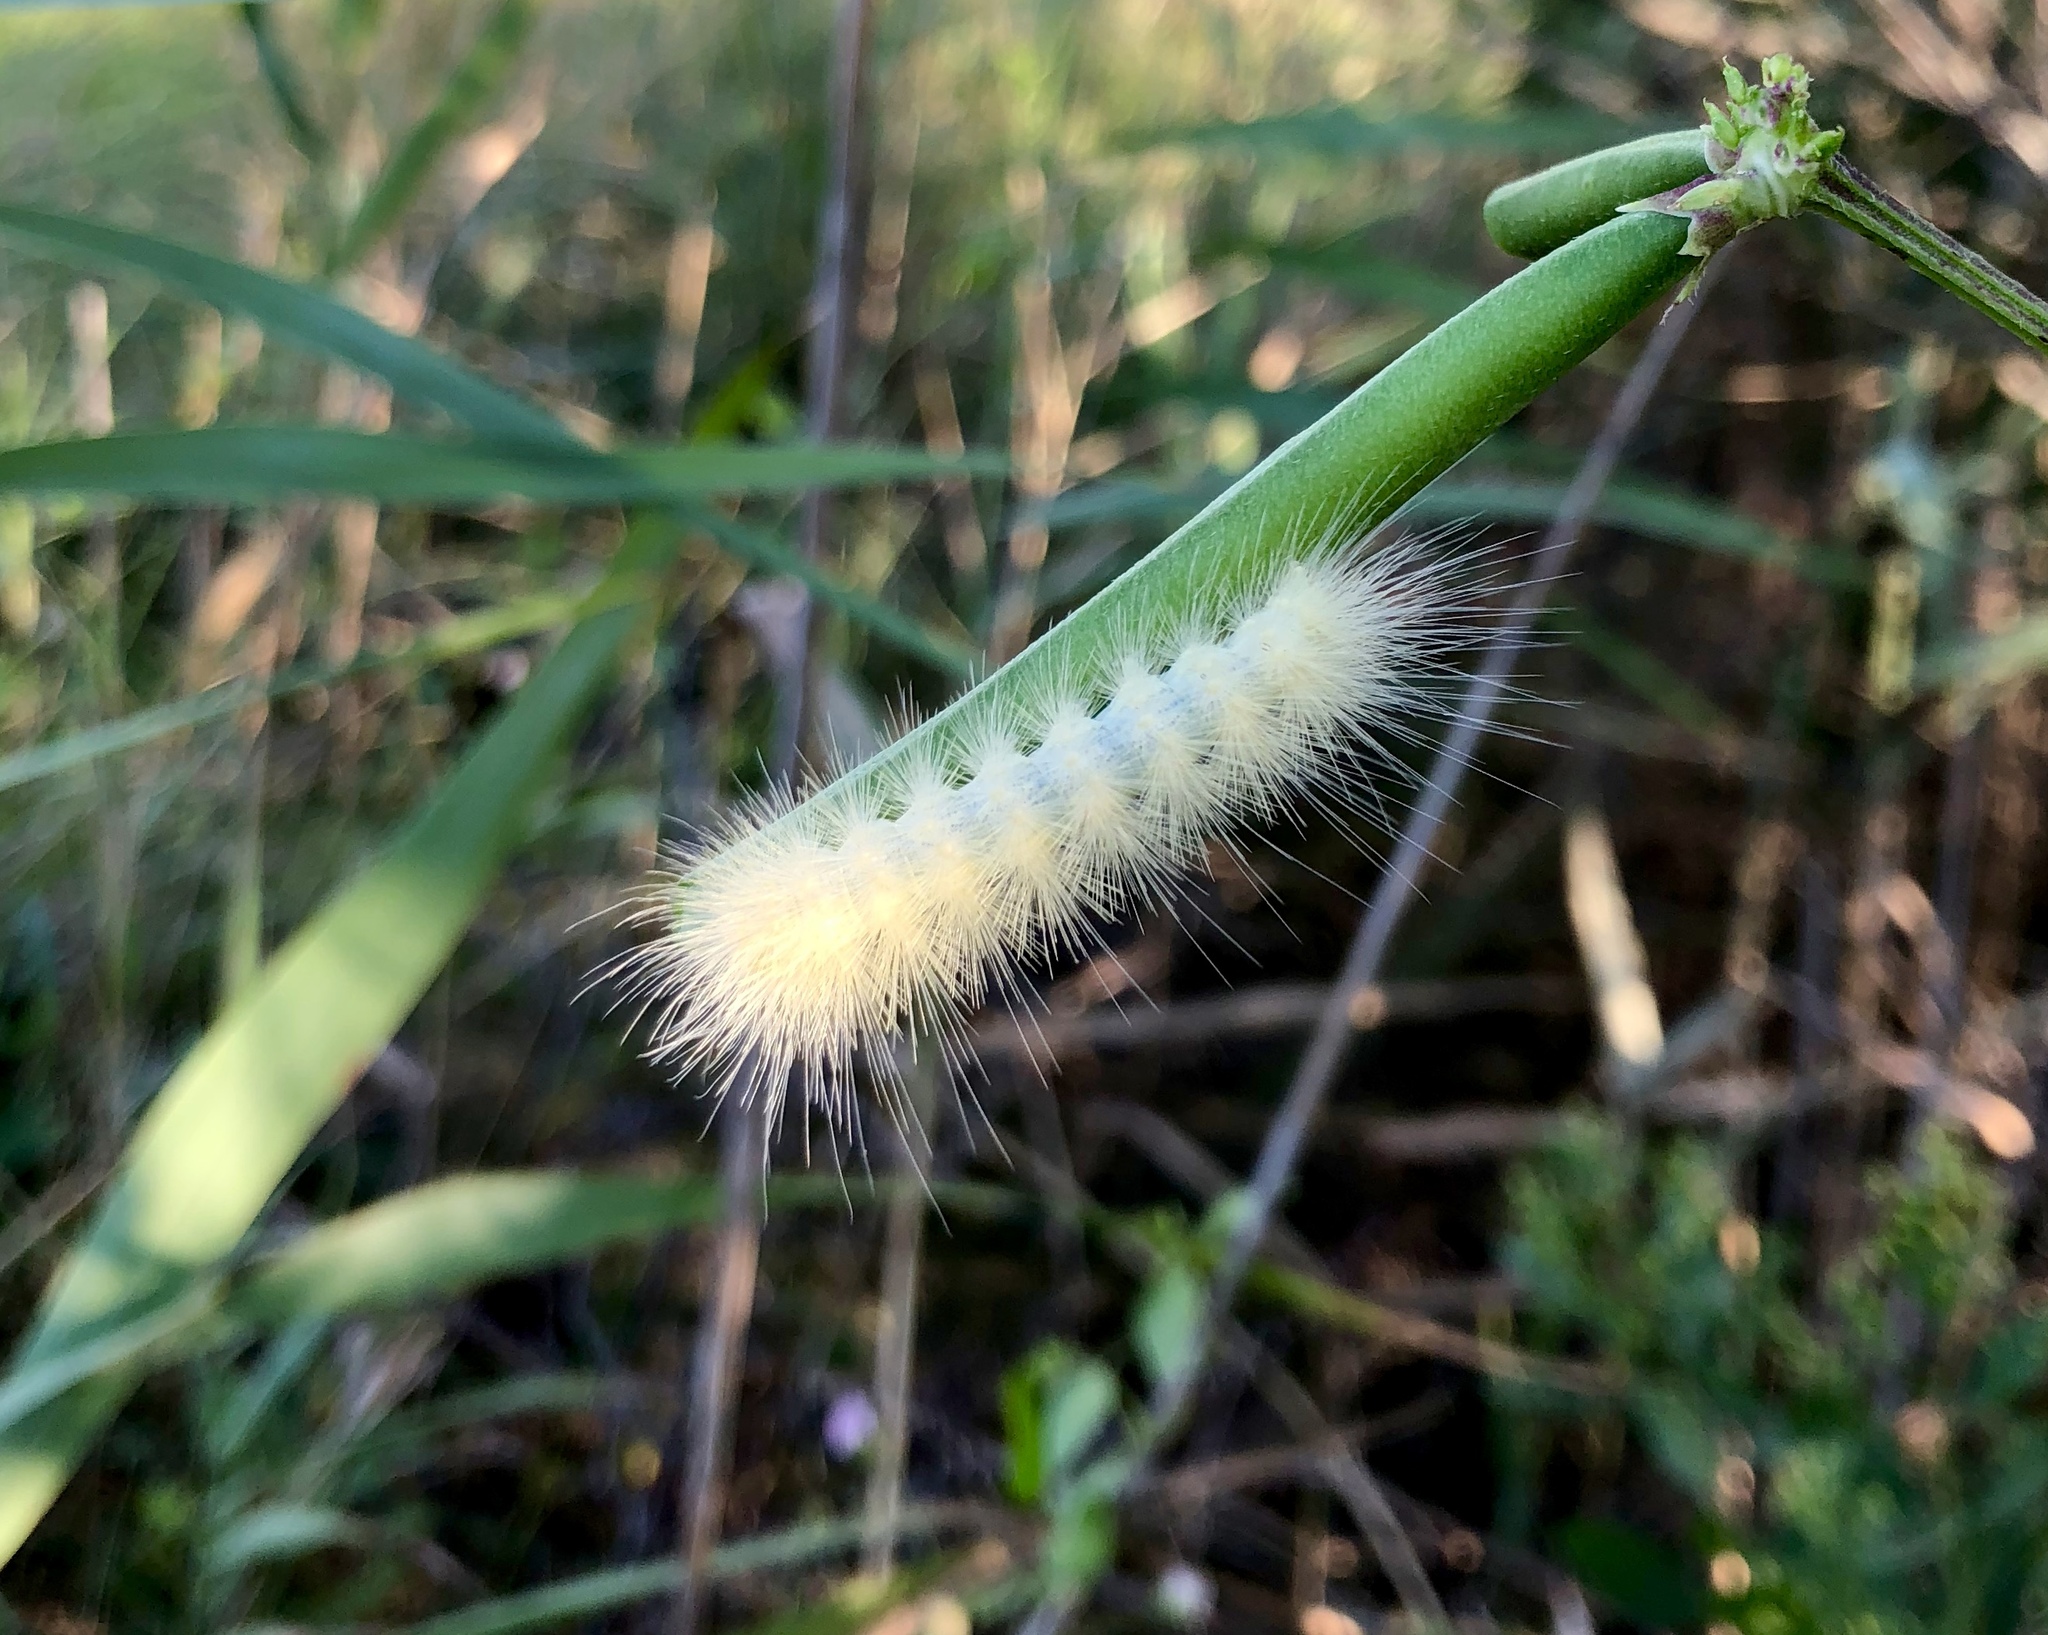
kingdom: Animalia
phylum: Arthropoda
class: Insecta
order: Lepidoptera
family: Erebidae
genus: Spilosoma
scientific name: Spilosoma virginica
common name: Virginia tiger moth
